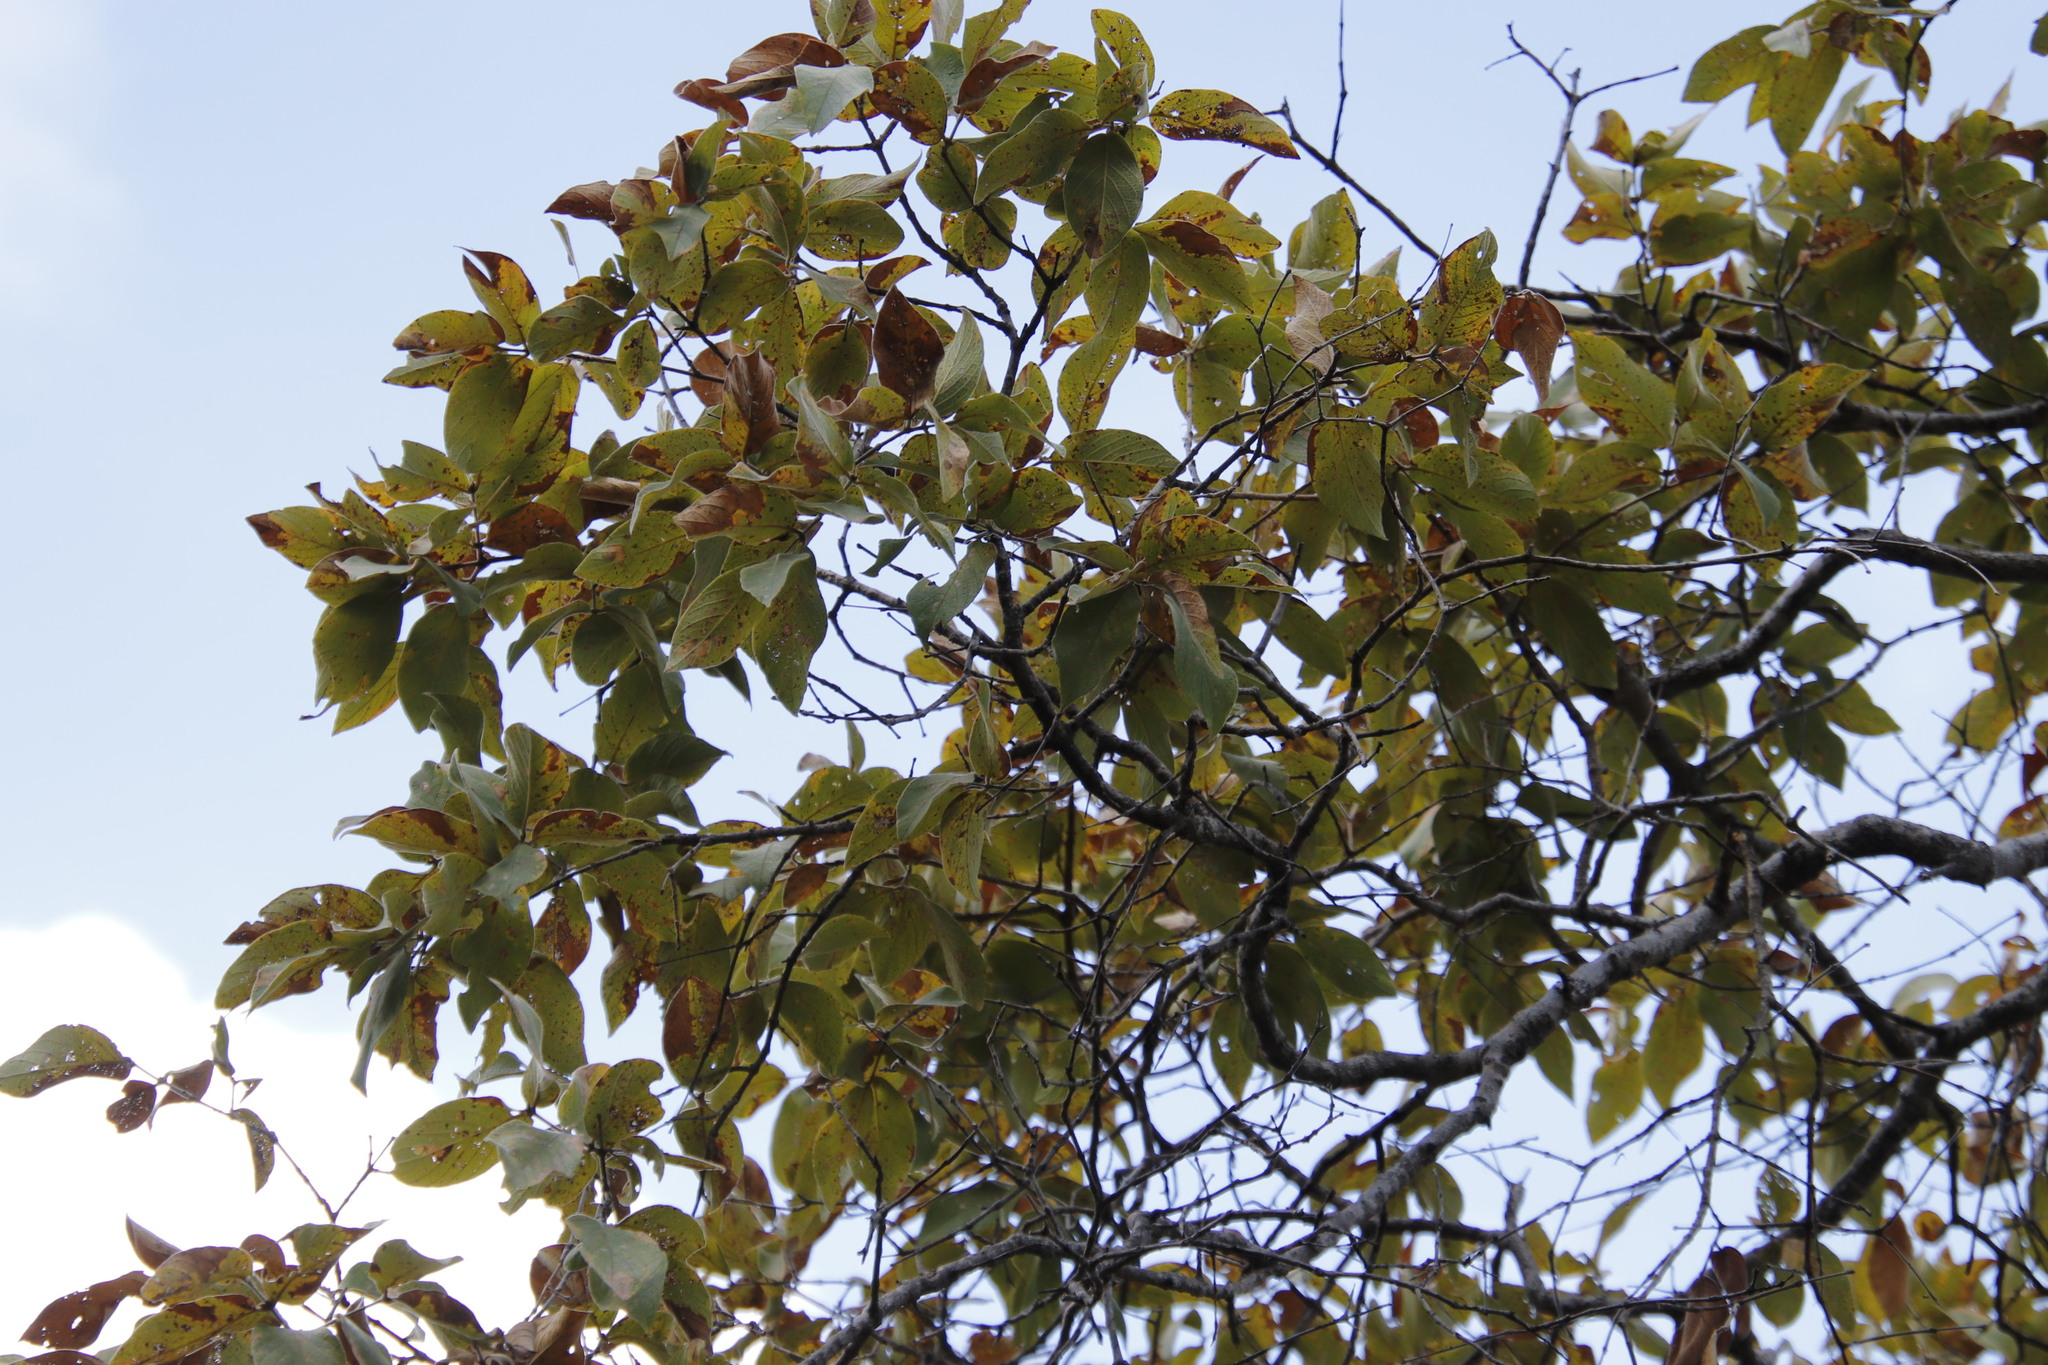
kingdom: Plantae
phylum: Tracheophyta
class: Magnoliopsida
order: Myrtales
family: Combretaceae
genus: Combretum
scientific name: Combretum molle
